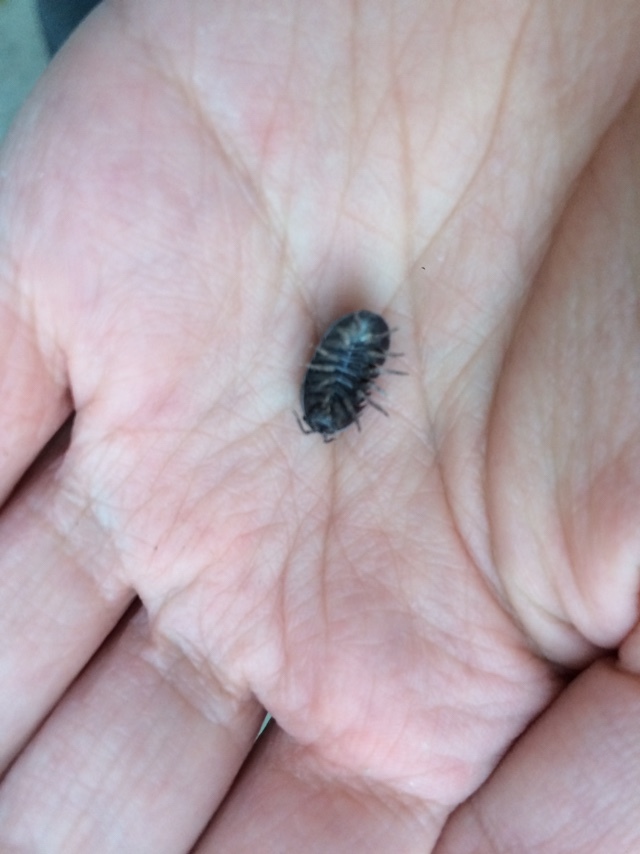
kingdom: Animalia
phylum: Arthropoda
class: Malacostraca
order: Isopoda
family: Armadillidiidae
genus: Armadillidium
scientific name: Armadillidium vulgare
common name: Common pill woodlouse
